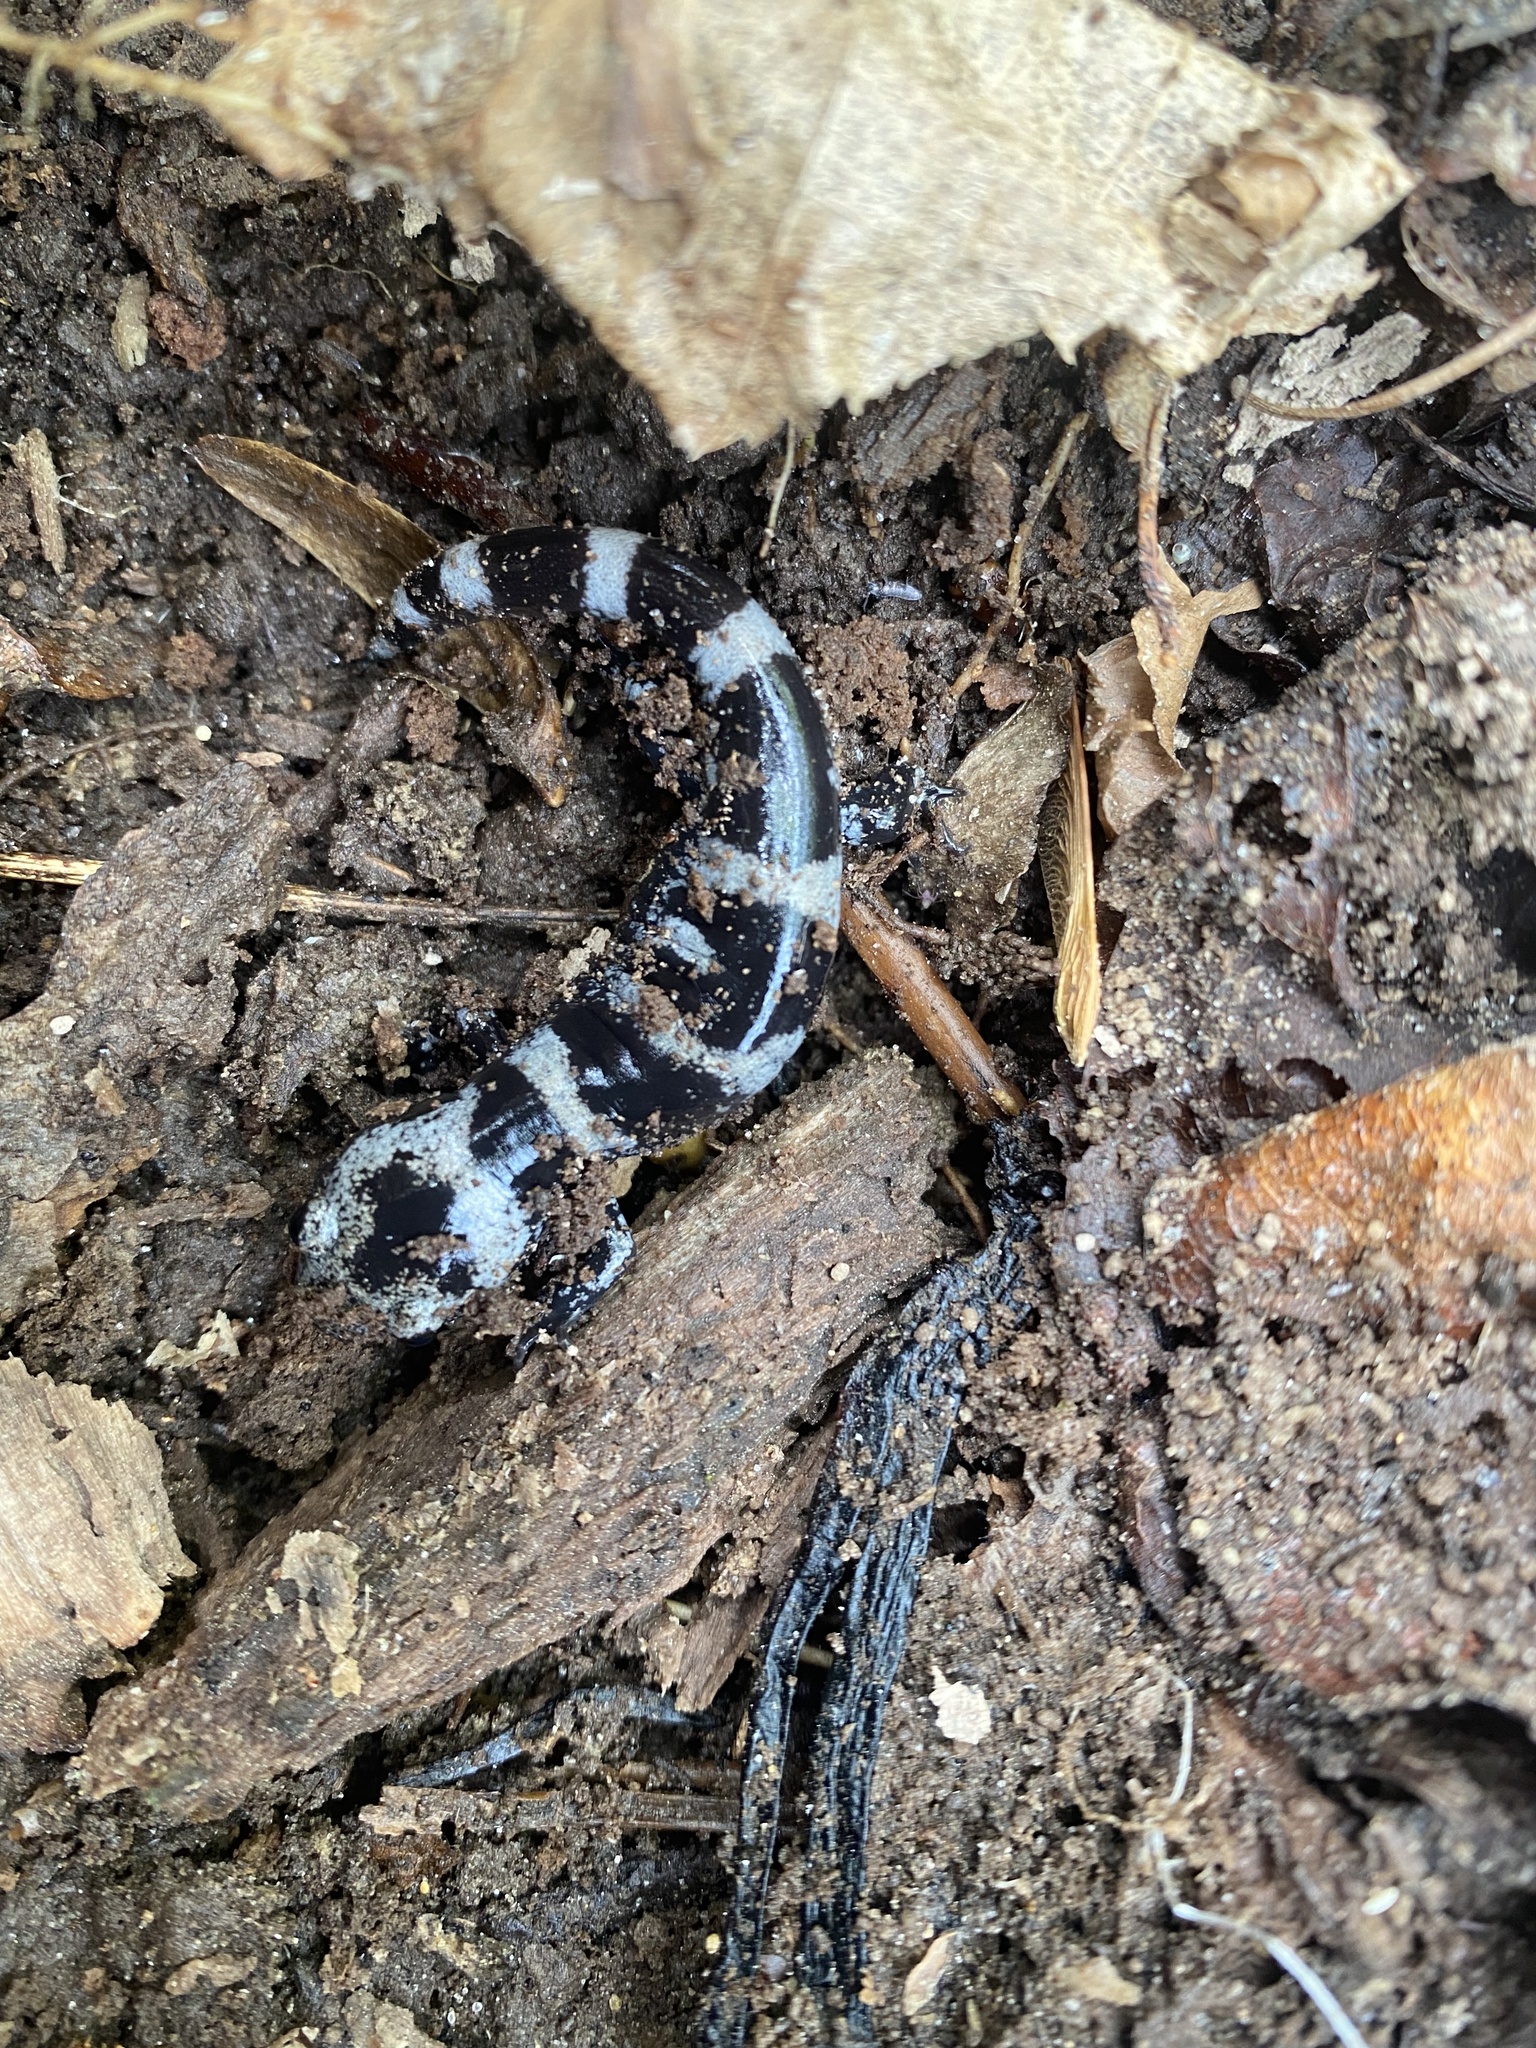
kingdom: Animalia
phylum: Chordata
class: Amphibia
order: Caudata
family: Ambystomatidae
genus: Ambystoma
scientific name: Ambystoma opacum
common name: Marbled salamander
